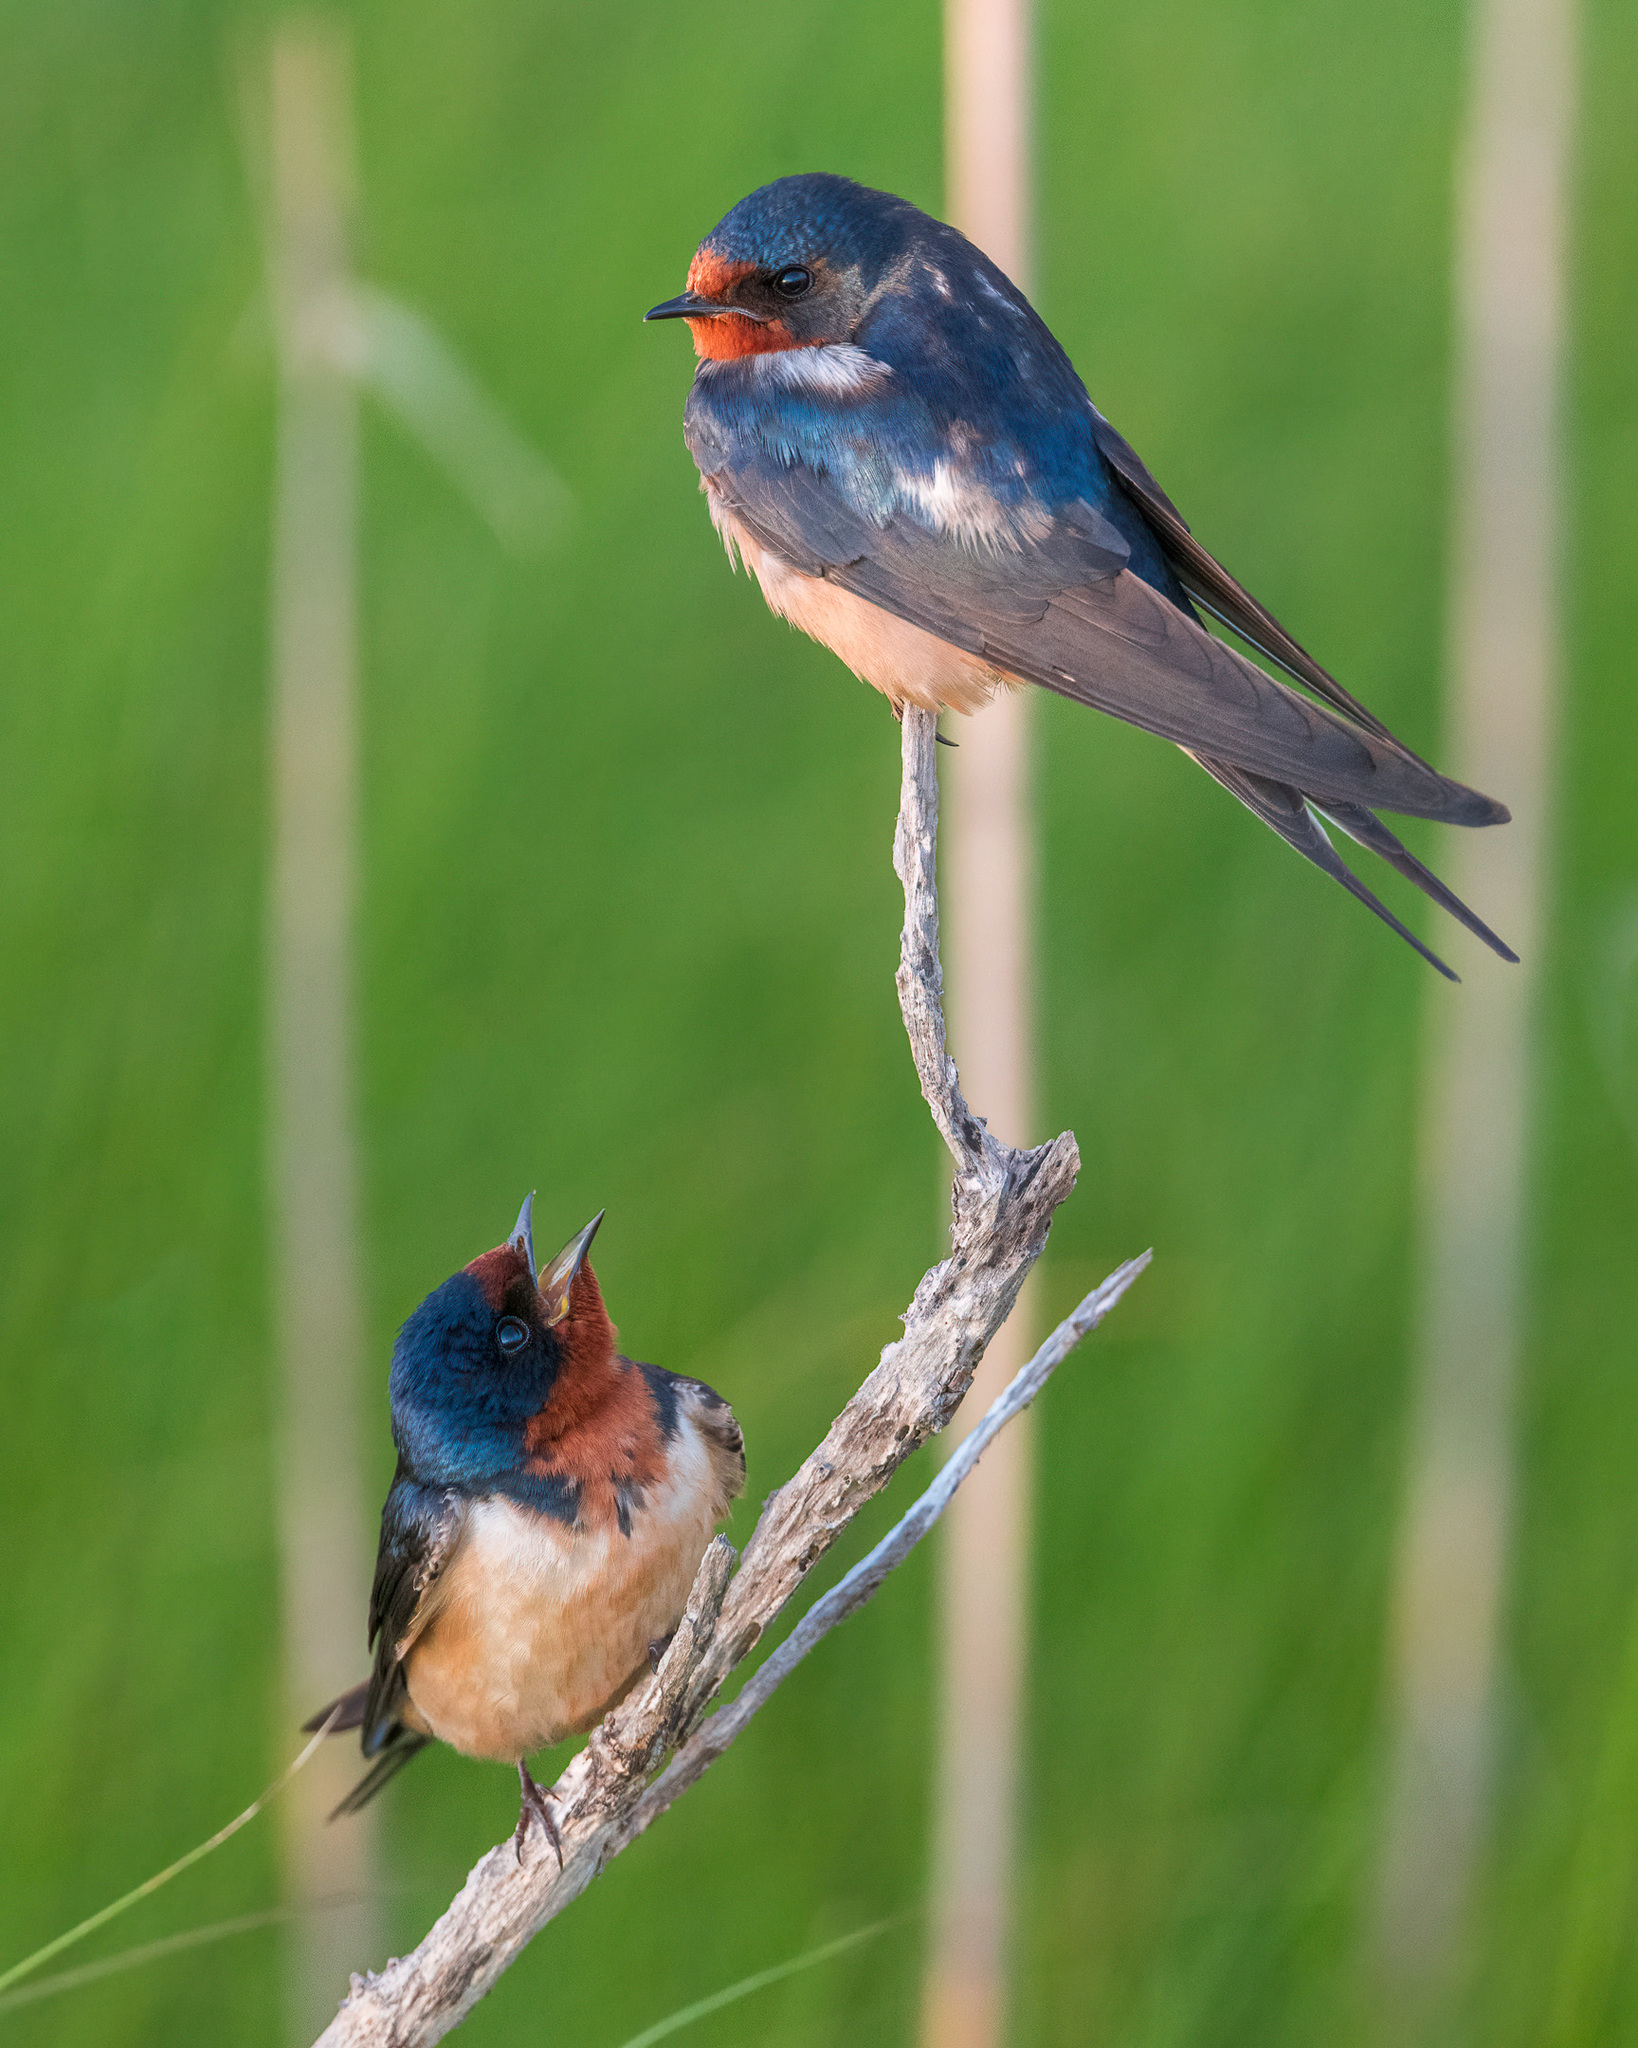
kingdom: Animalia
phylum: Chordata
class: Aves
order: Passeriformes
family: Hirundinidae
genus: Hirundo
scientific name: Hirundo rustica
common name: Barn swallow
